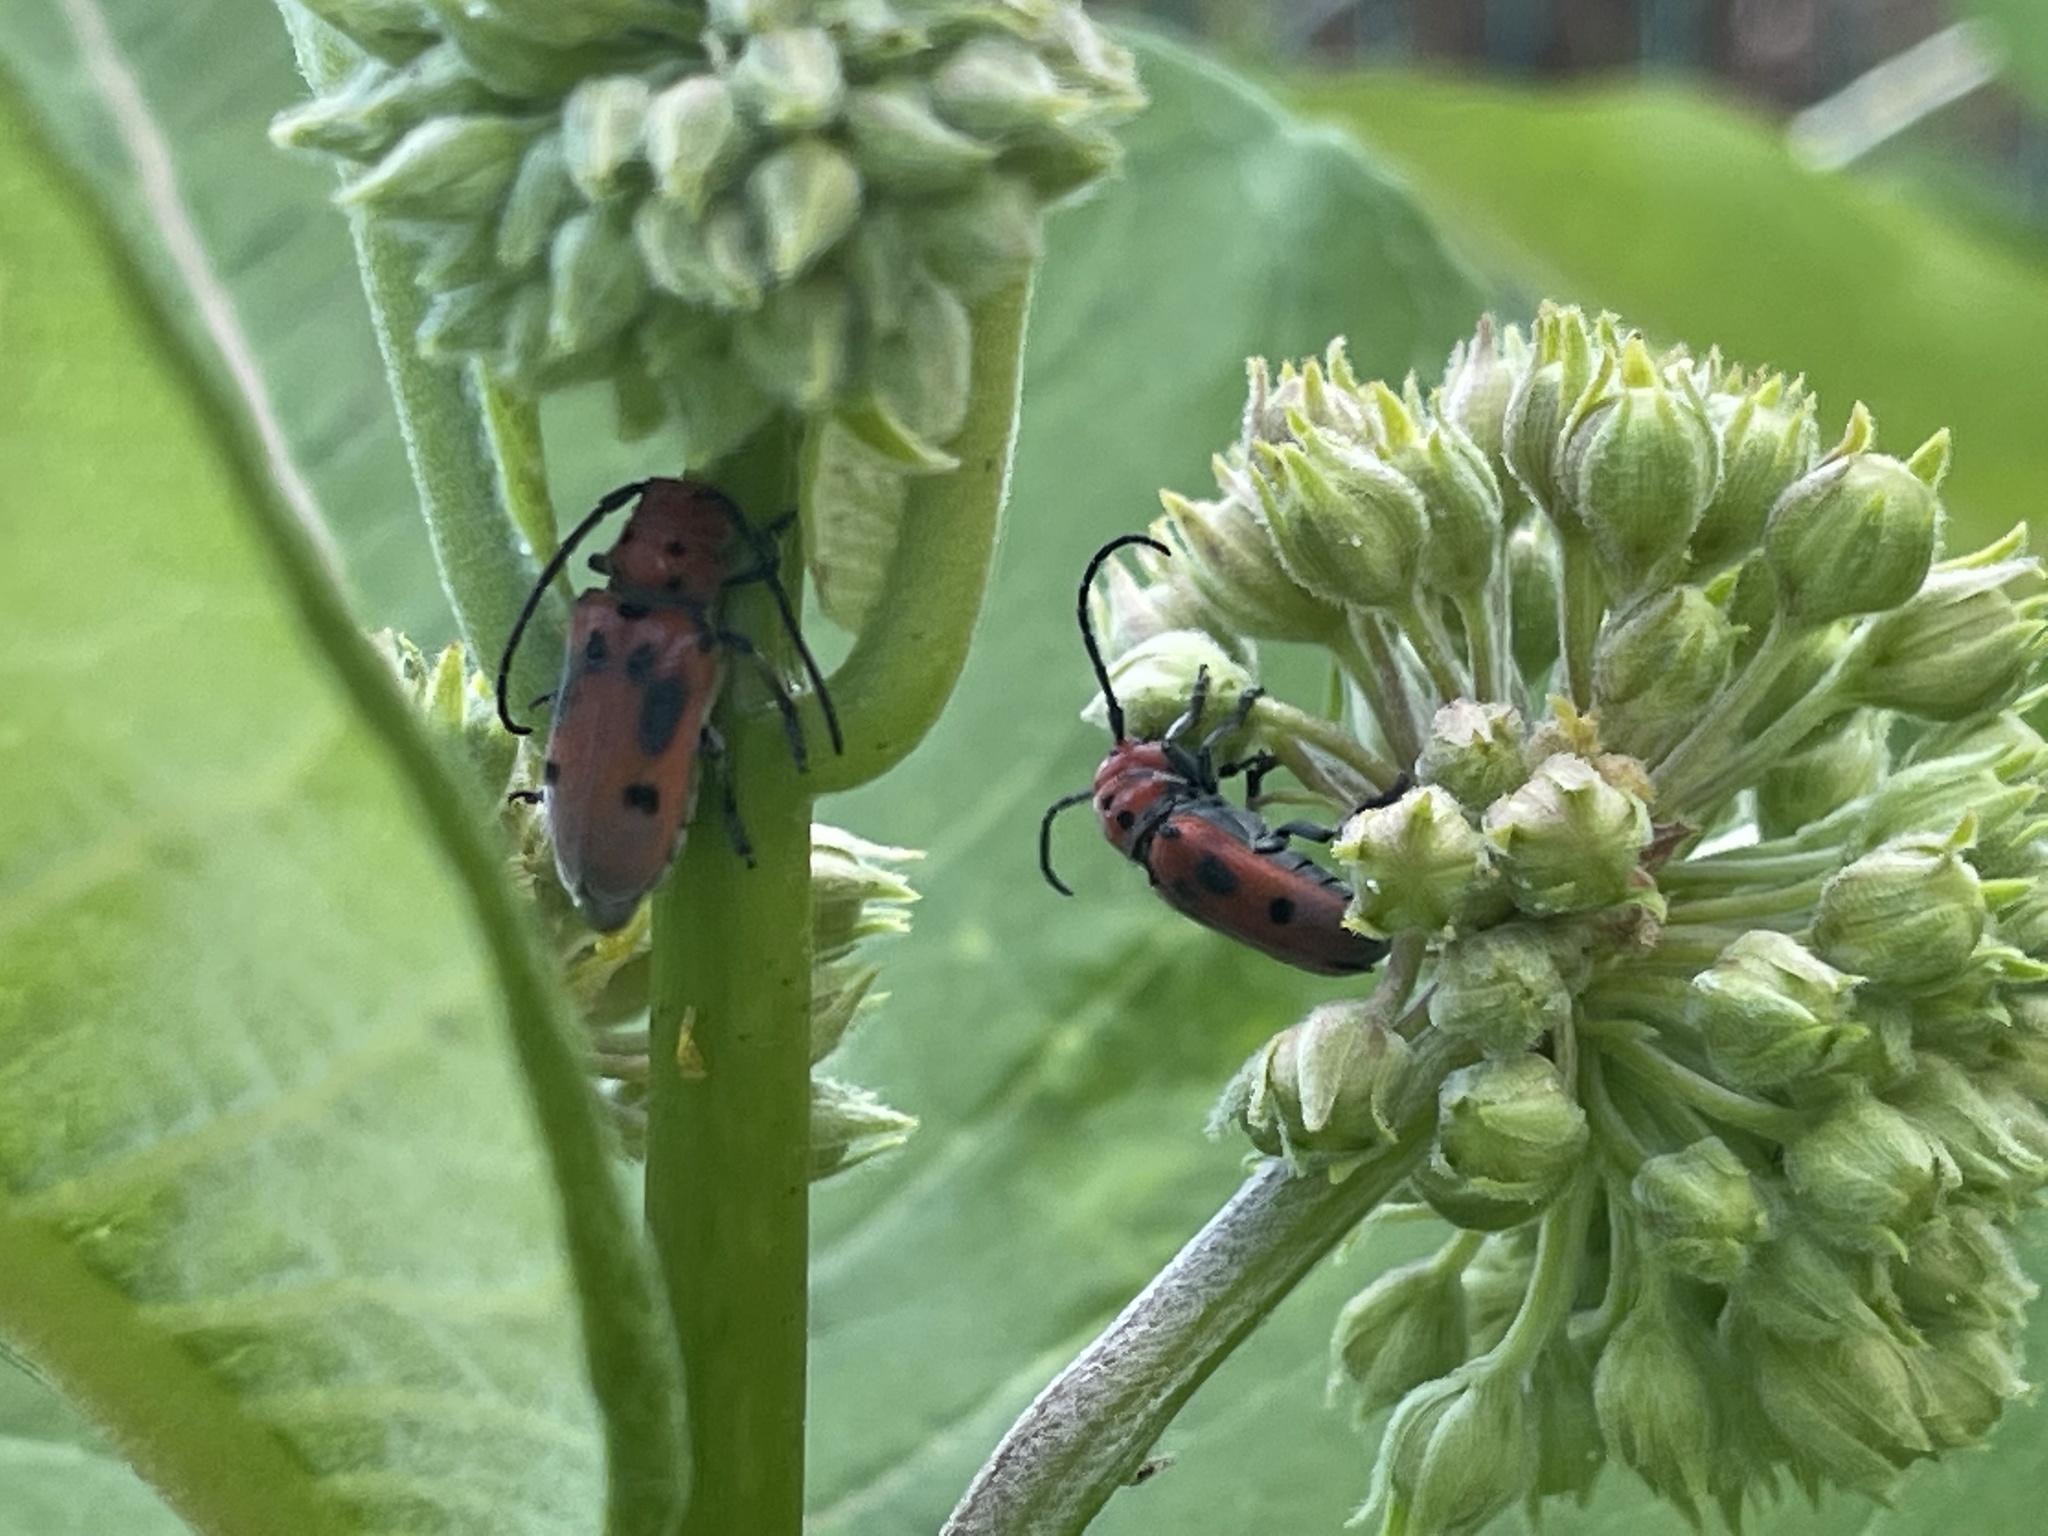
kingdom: Animalia
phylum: Arthropoda
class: Insecta
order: Coleoptera
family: Cerambycidae
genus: Tetraopes
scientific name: Tetraopes tetrophthalmus
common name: Red milkweed beetle
